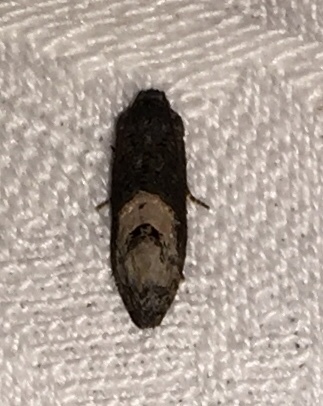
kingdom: Animalia
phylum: Arthropoda
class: Insecta
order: Lepidoptera
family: Tortricidae
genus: Ecdytolopha
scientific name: Ecdytolopha insiticiana
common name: Locust twig borer moth
